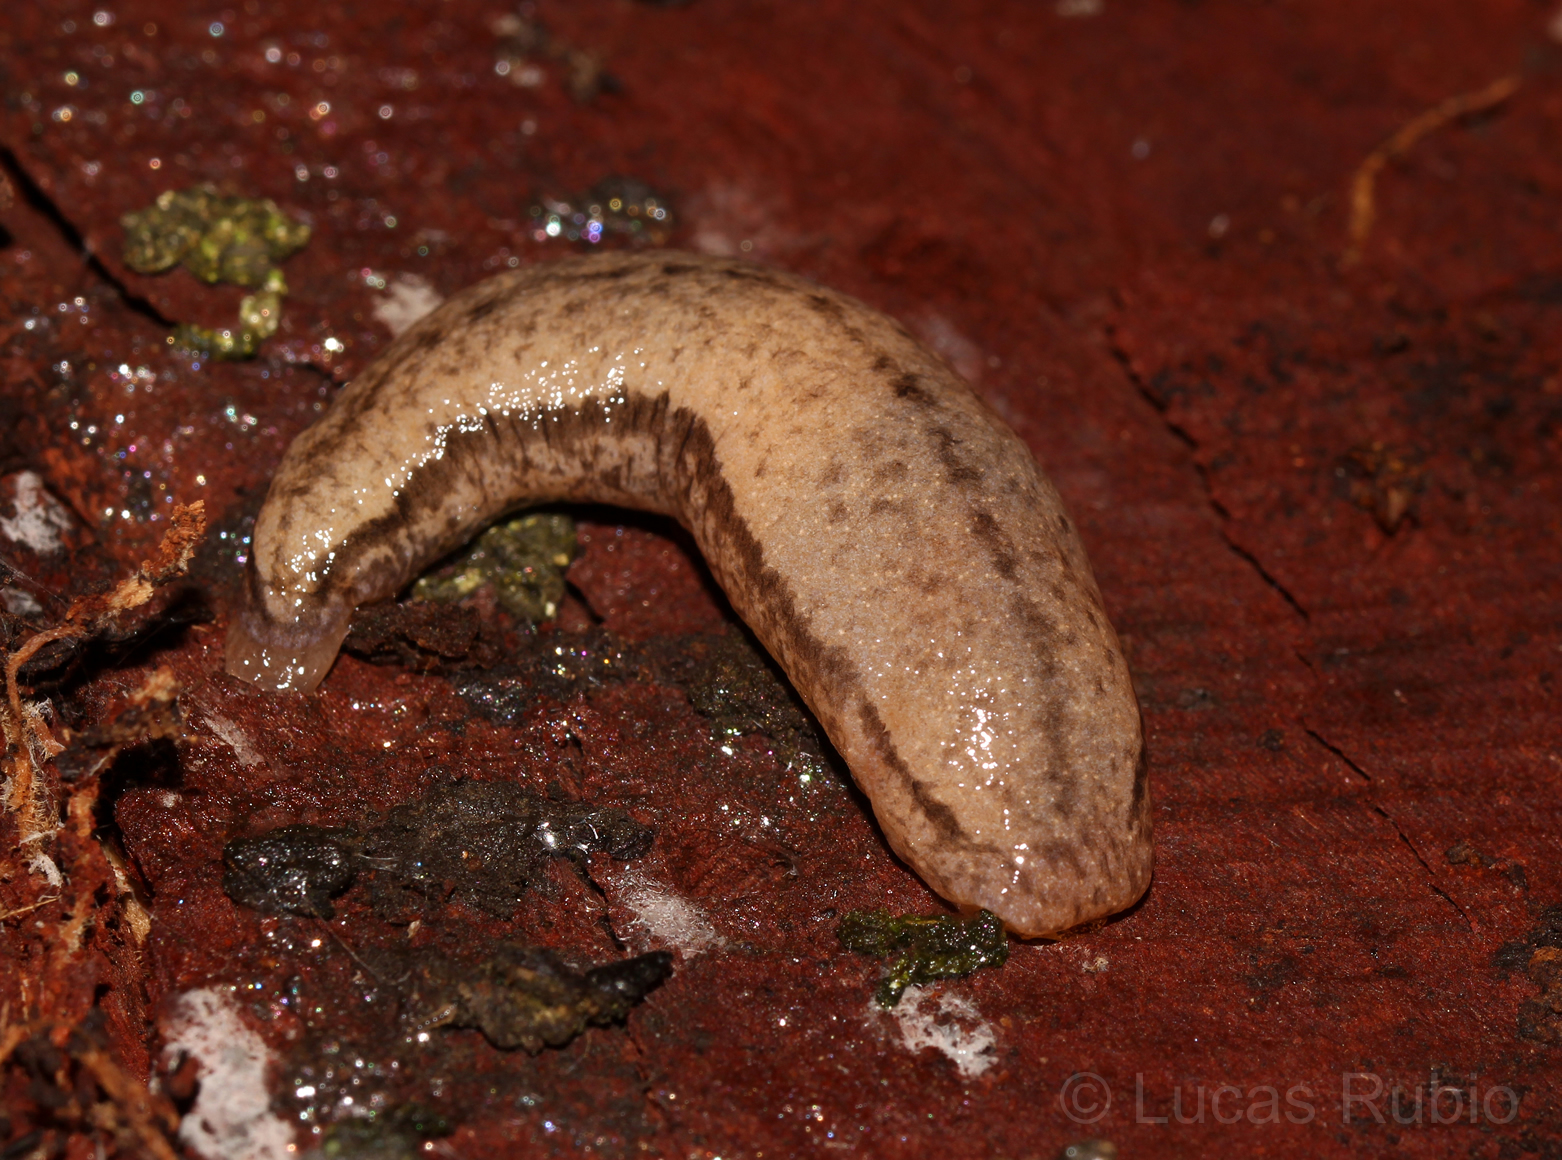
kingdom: Animalia
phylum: Mollusca
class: Gastropoda
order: Stylommatophora
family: Philomycidae
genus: Meghimatium
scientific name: Meghimatium pictum
